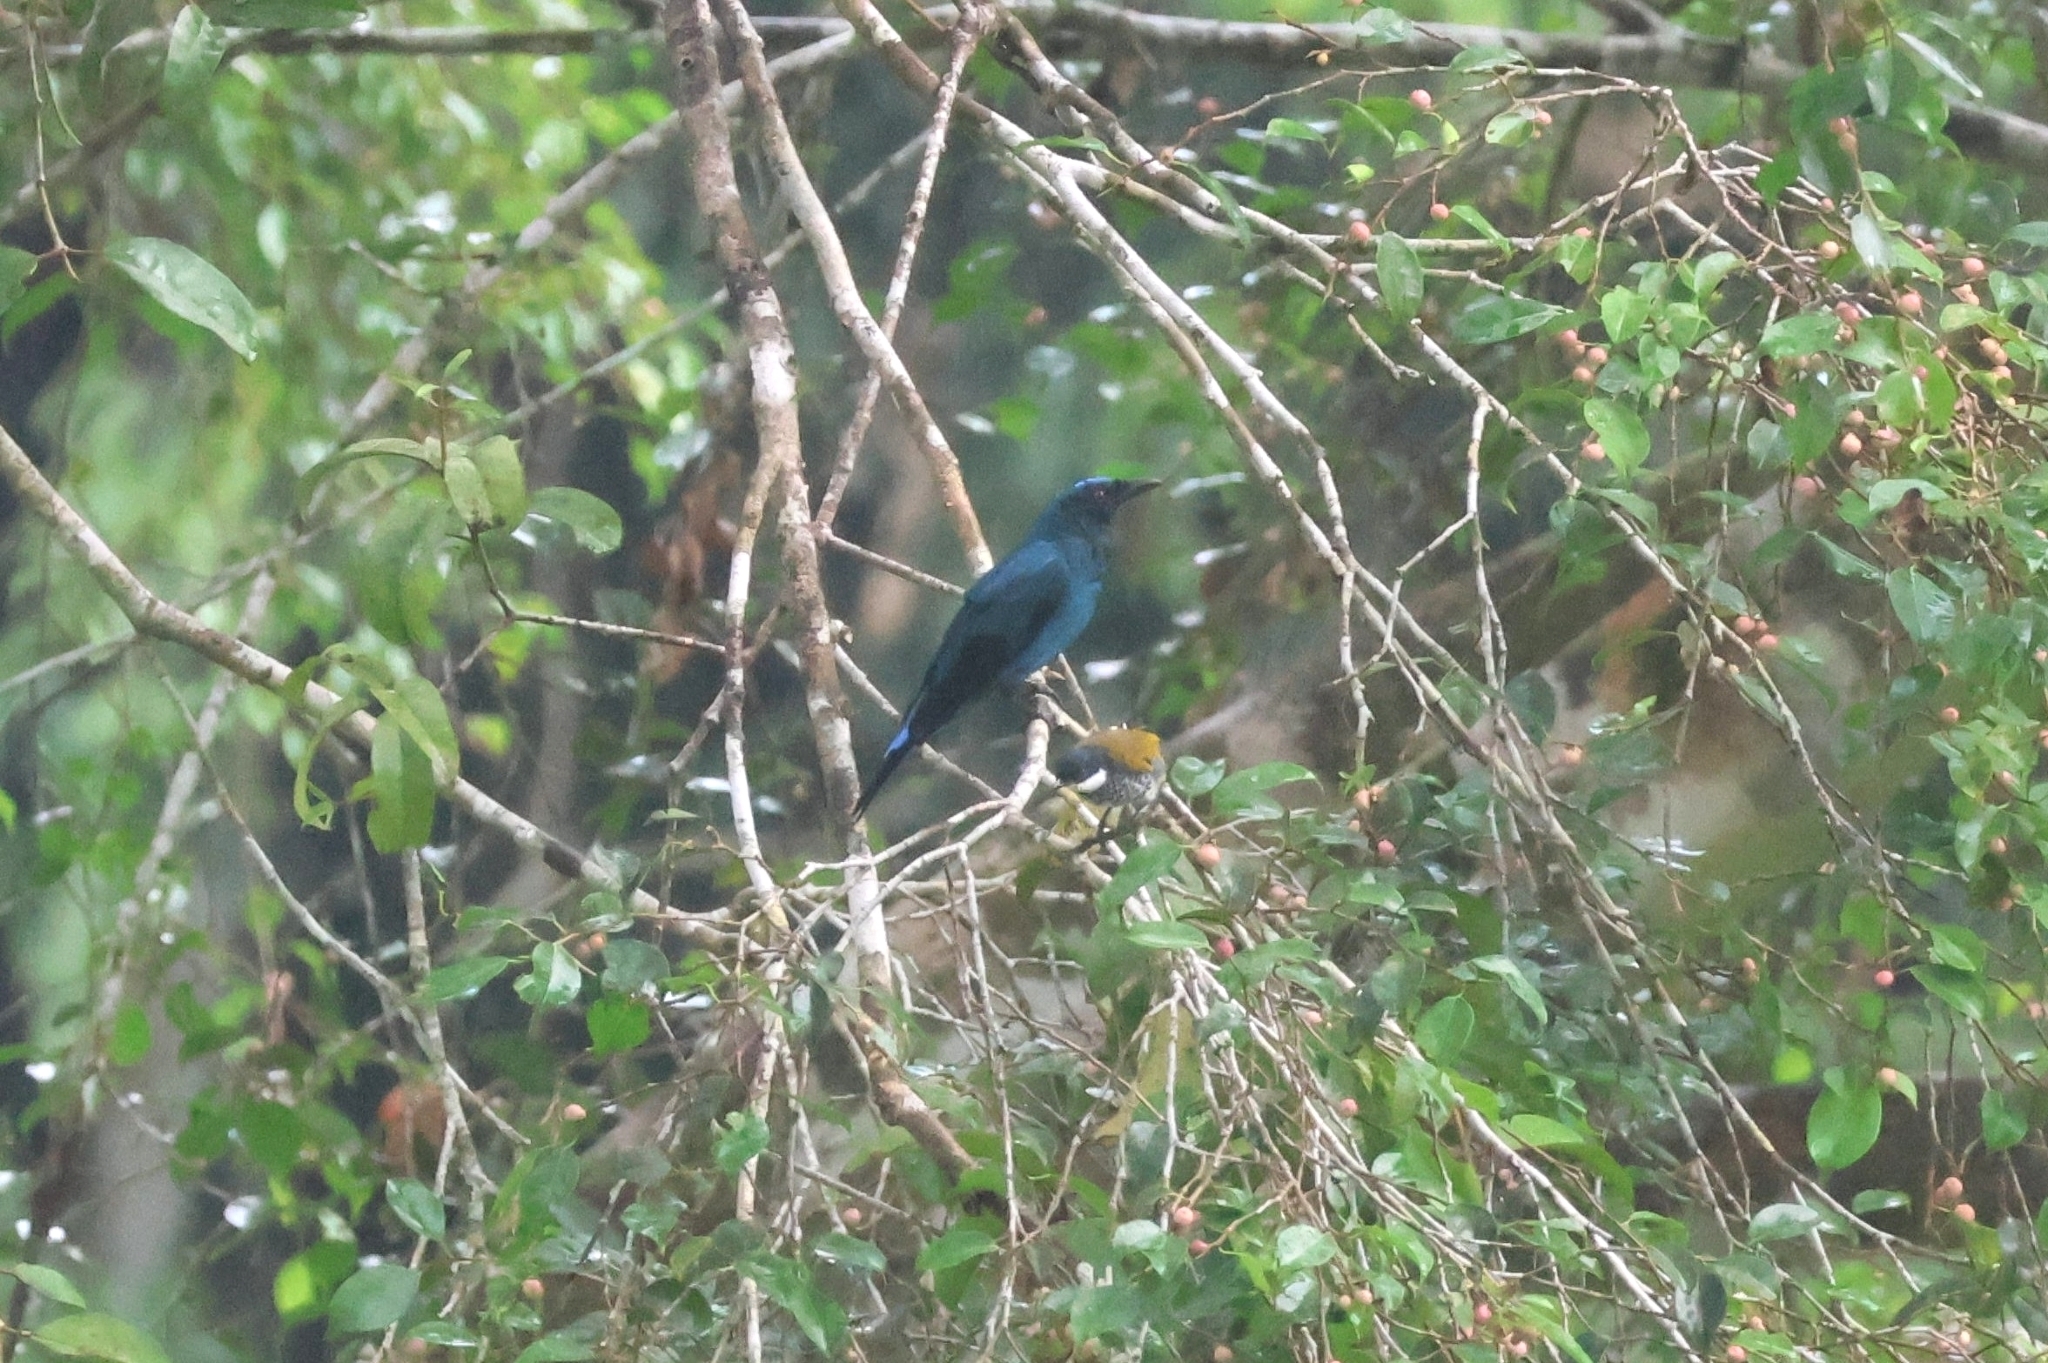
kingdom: Animalia
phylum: Chordata
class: Aves
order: Passeriformes
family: Irenidae
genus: Irena
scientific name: Irena puella
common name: Asian fairy-bluebird
